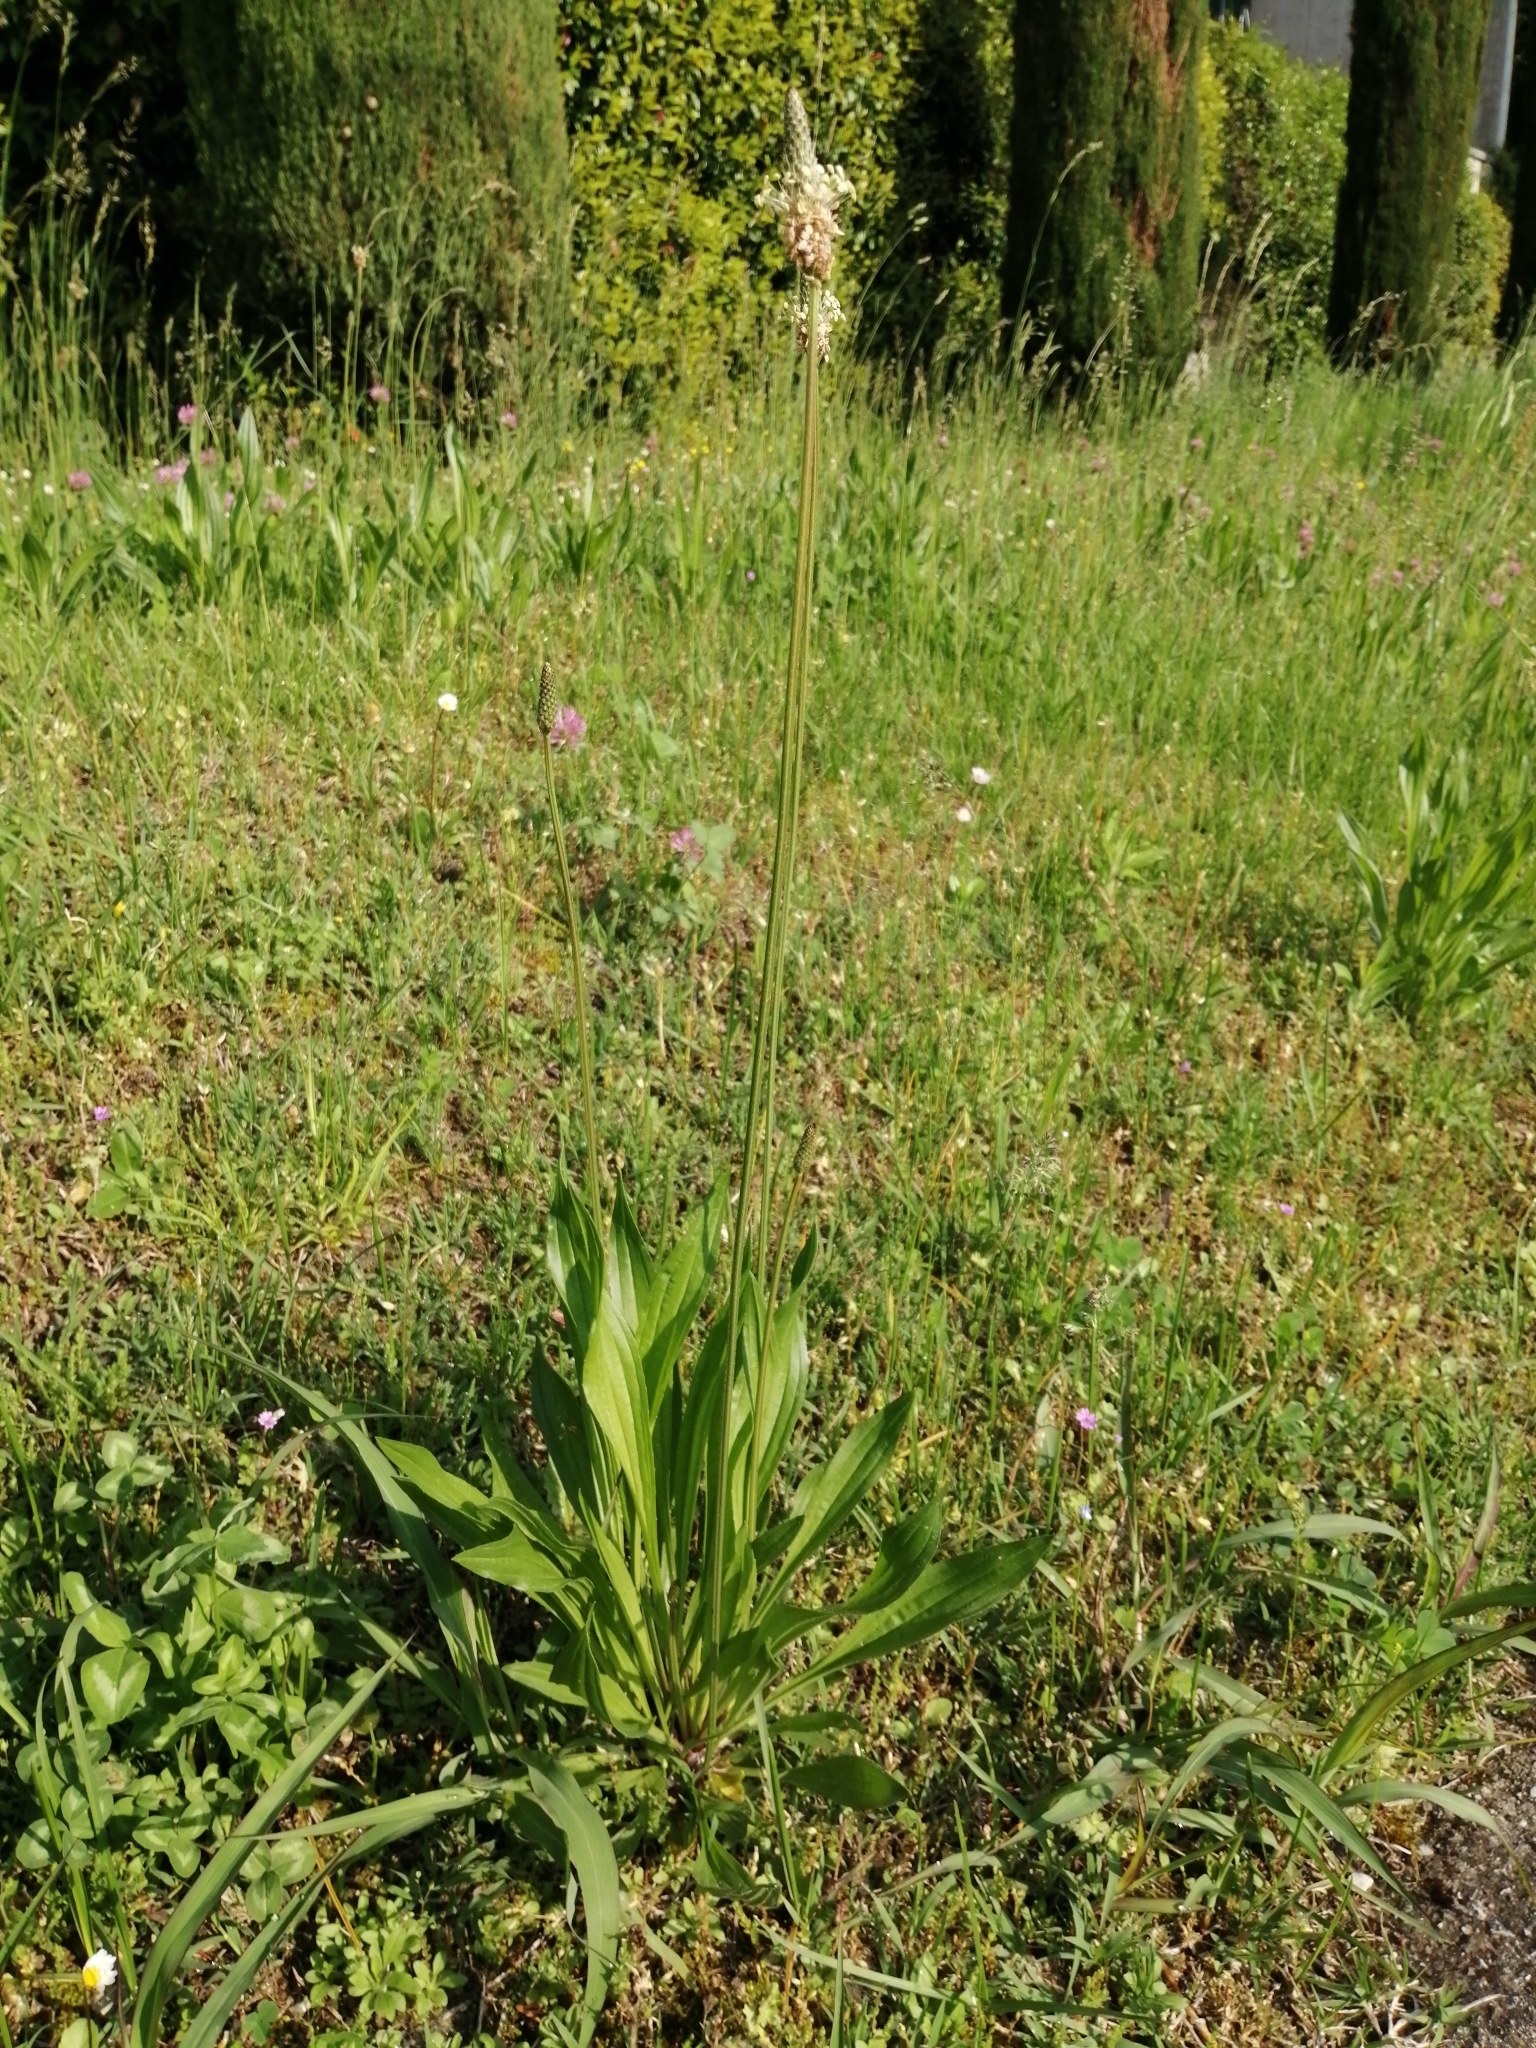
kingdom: Plantae
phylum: Tracheophyta
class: Magnoliopsida
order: Lamiales
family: Plantaginaceae
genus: Plantago
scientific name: Plantago lanceolata
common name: Ribwort plantain
